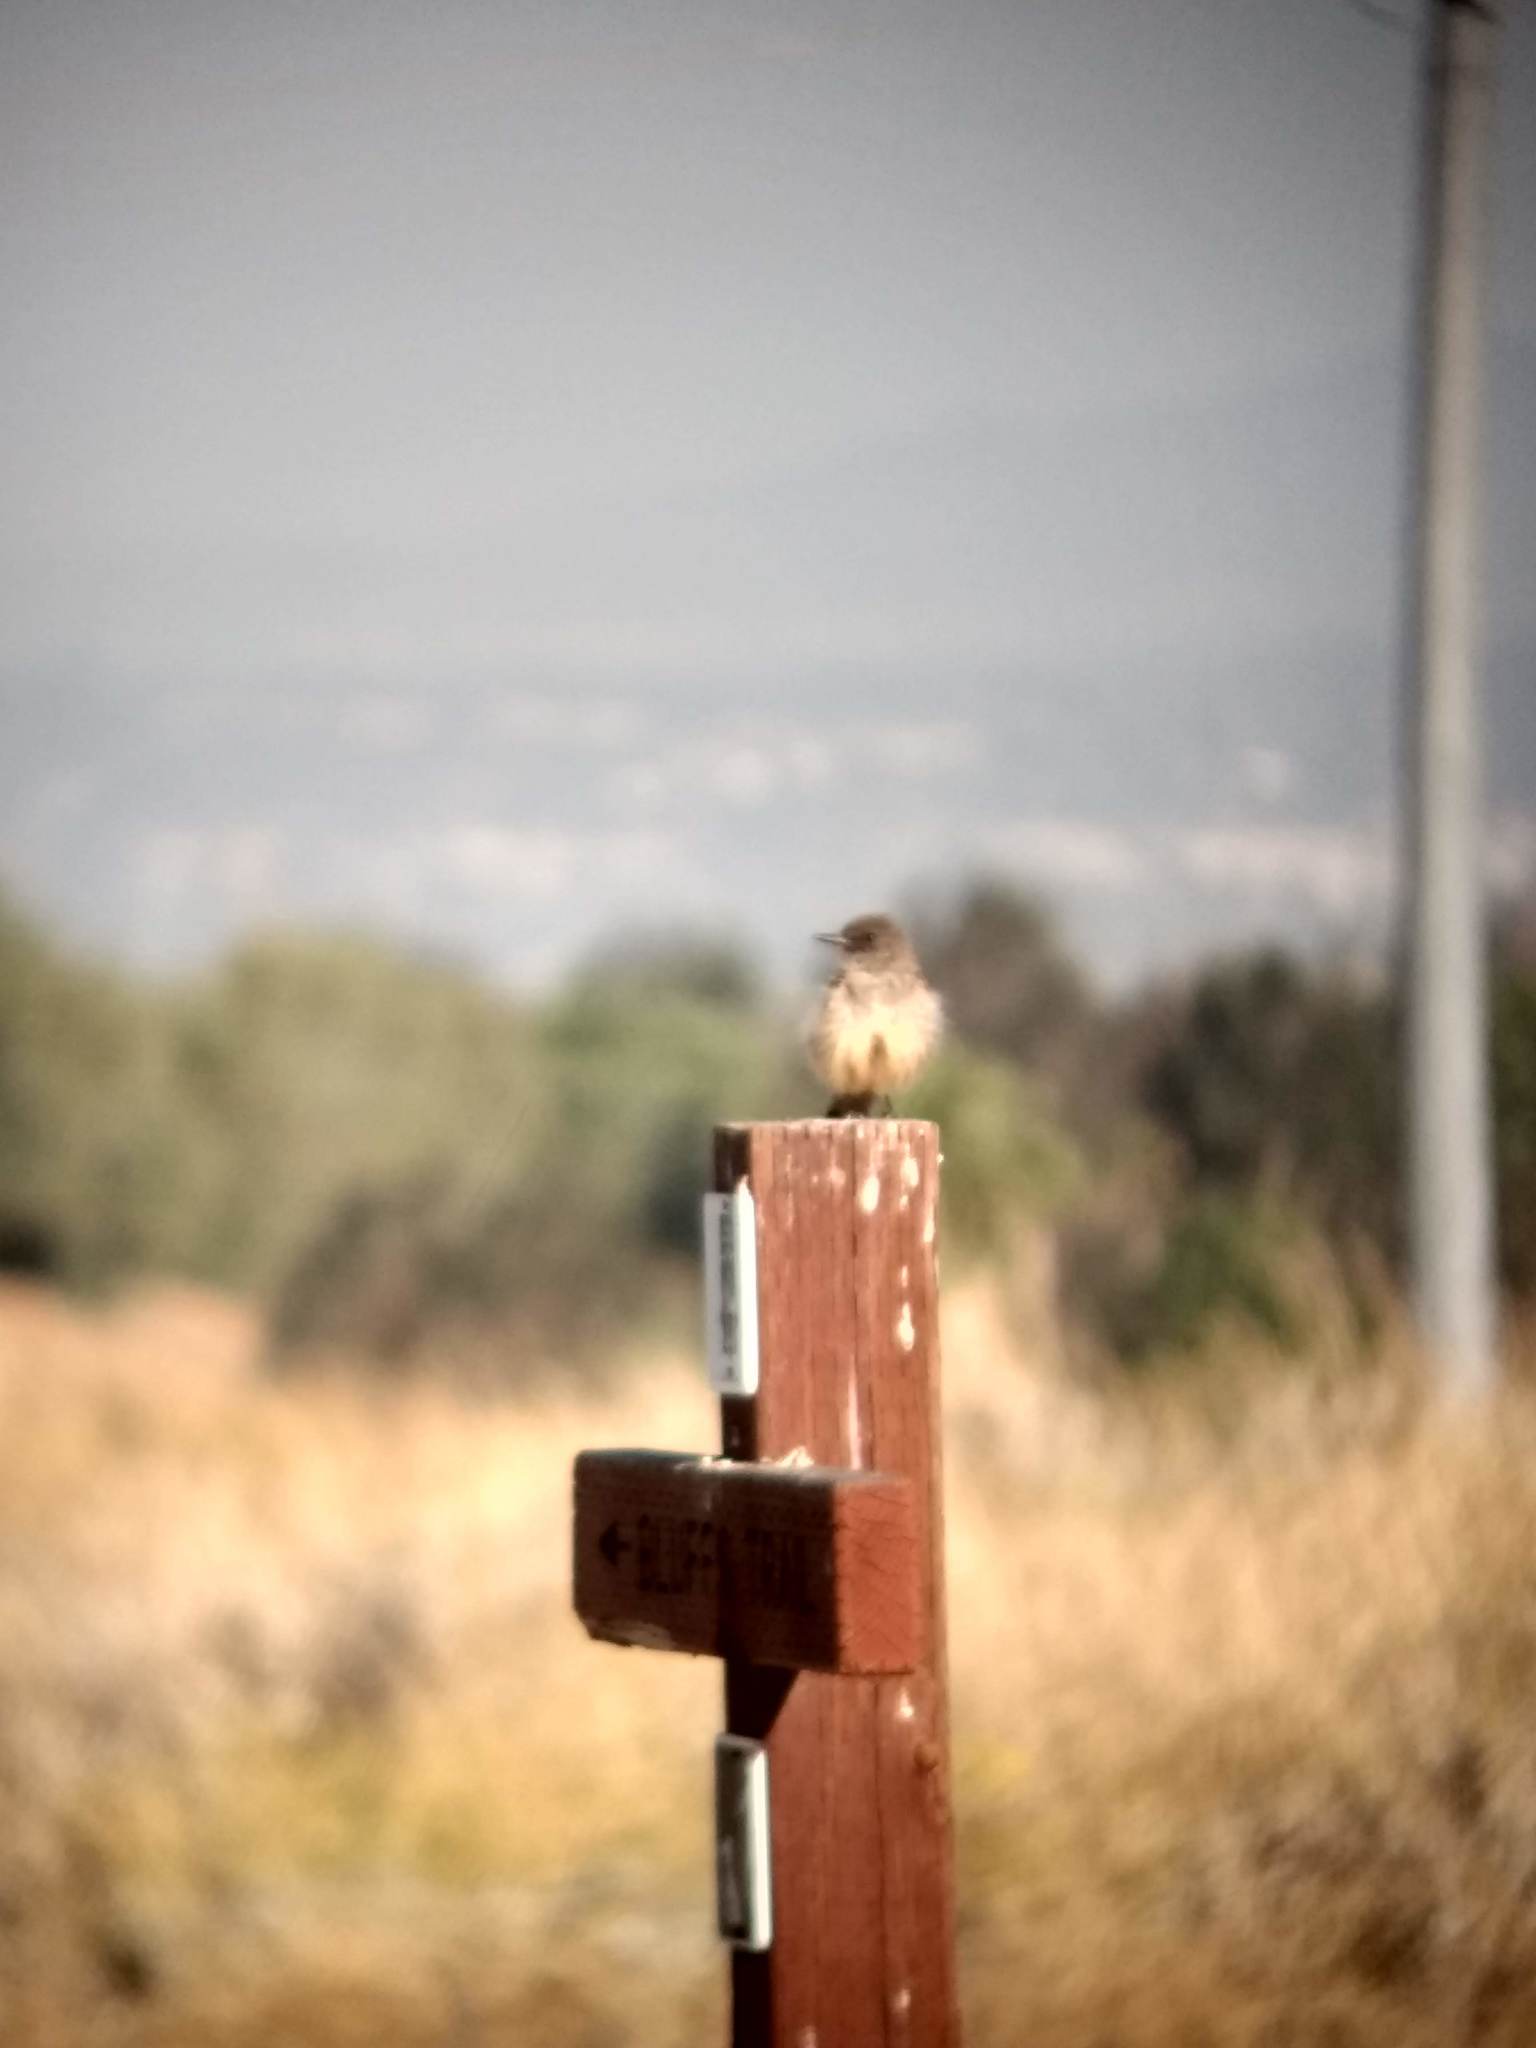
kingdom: Animalia
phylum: Chordata
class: Aves
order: Passeriformes
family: Tyrannidae
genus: Sayornis
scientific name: Sayornis saya
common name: Say's phoebe
